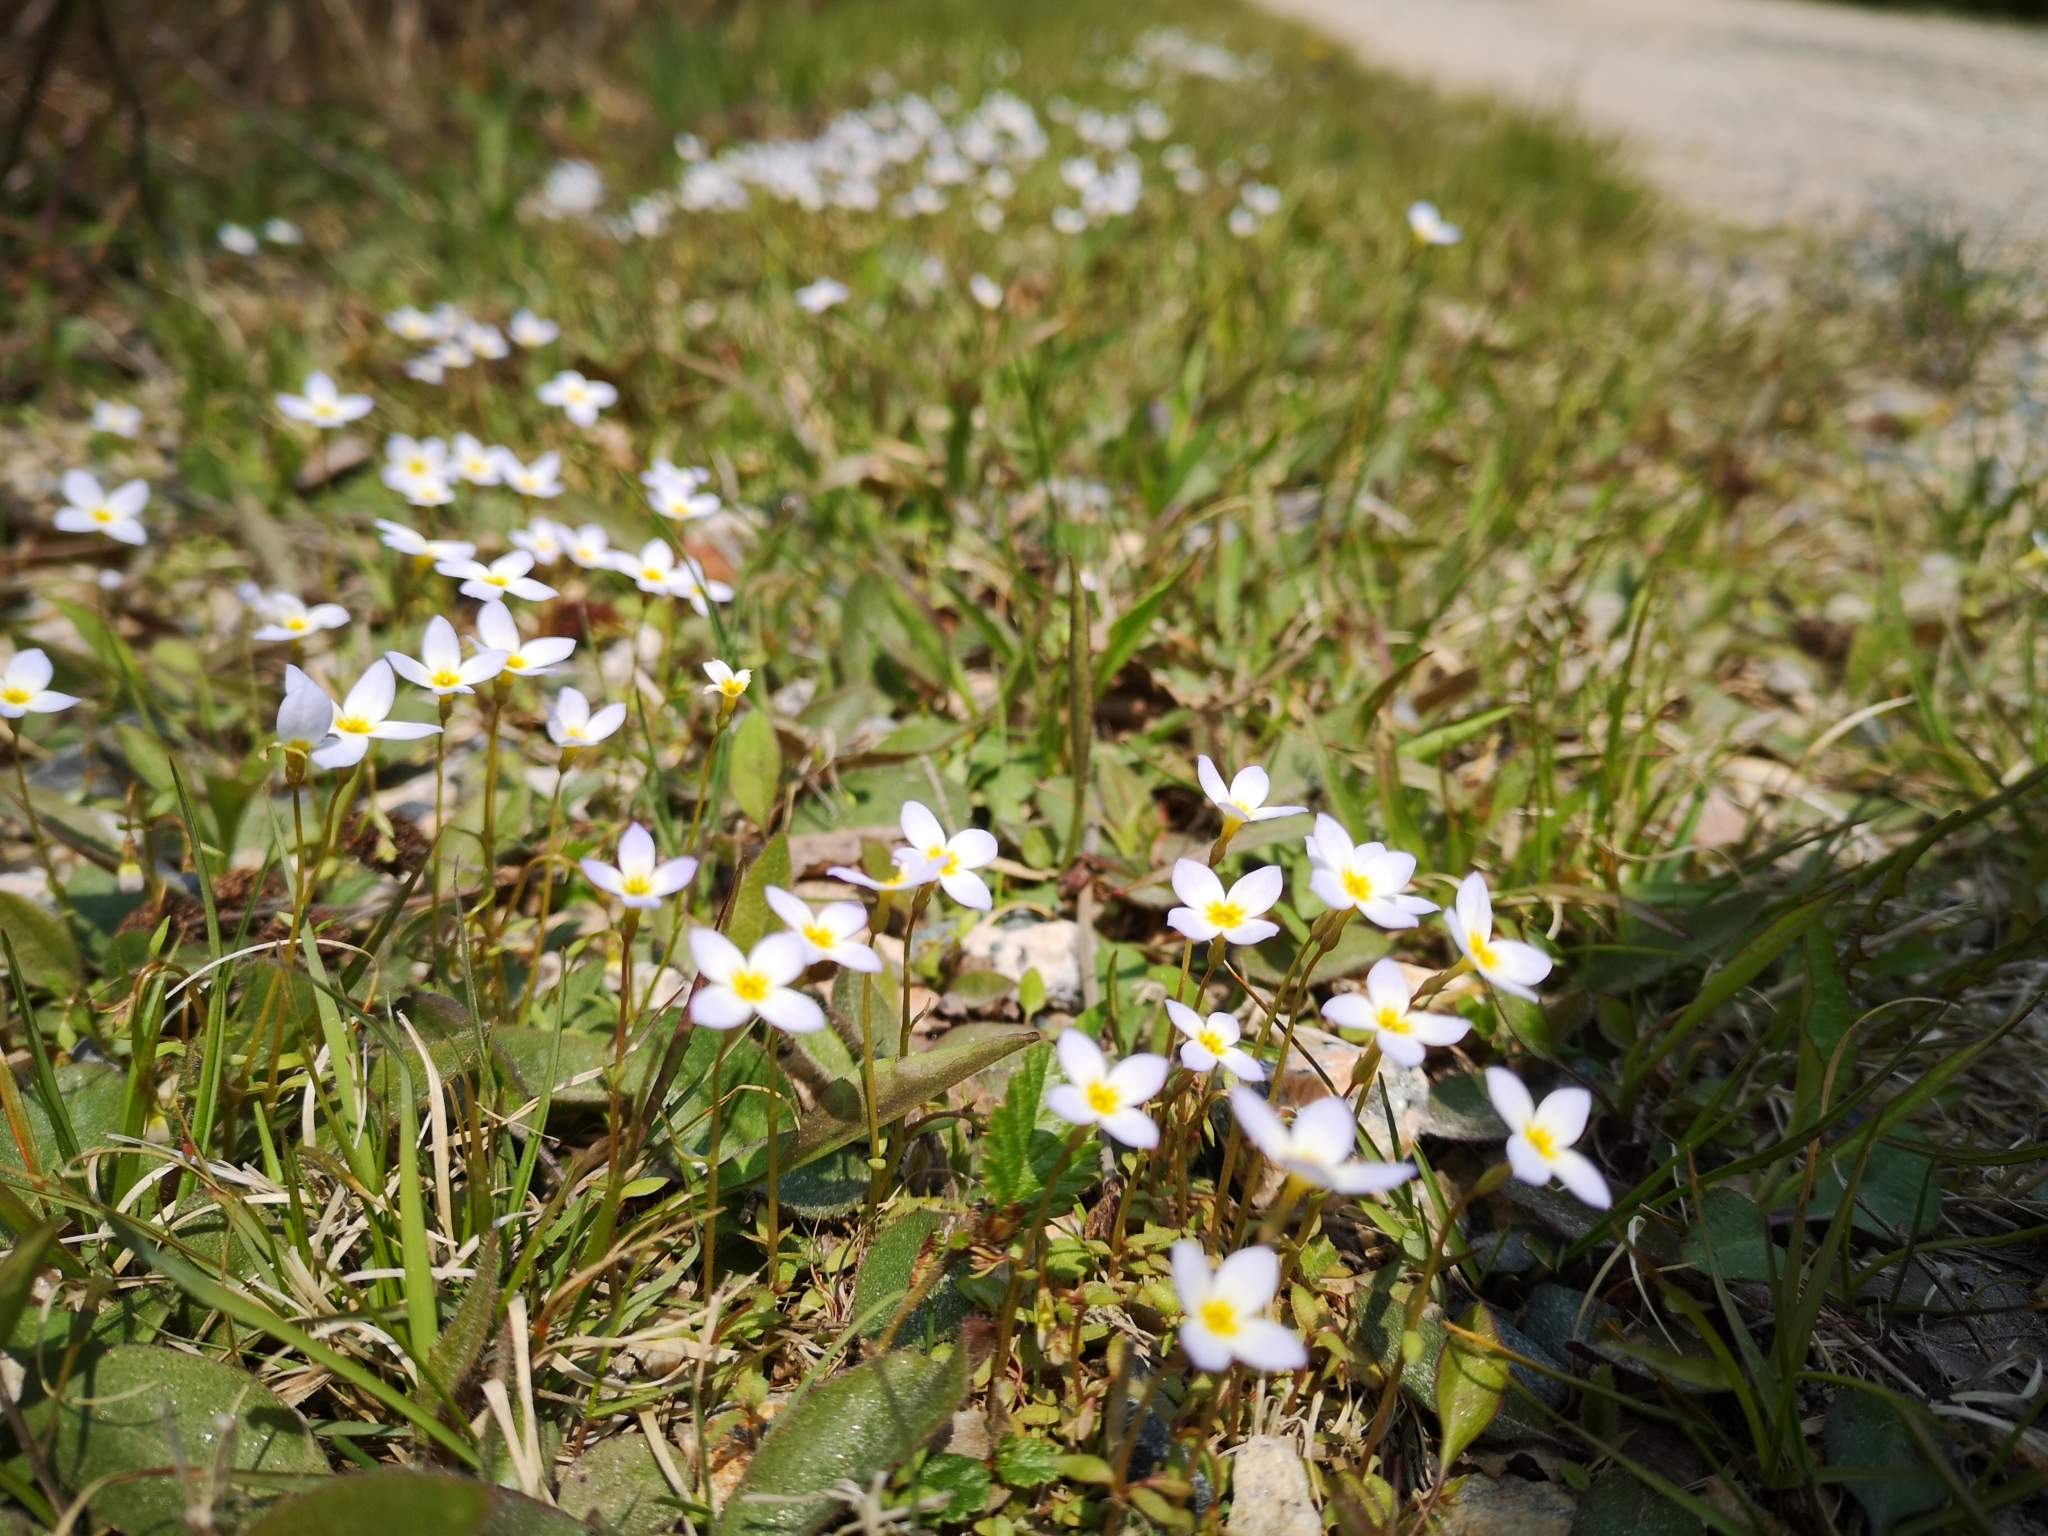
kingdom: Plantae
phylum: Tracheophyta
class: Magnoliopsida
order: Gentianales
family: Rubiaceae
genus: Houstonia
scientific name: Houstonia caerulea
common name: Bluets
